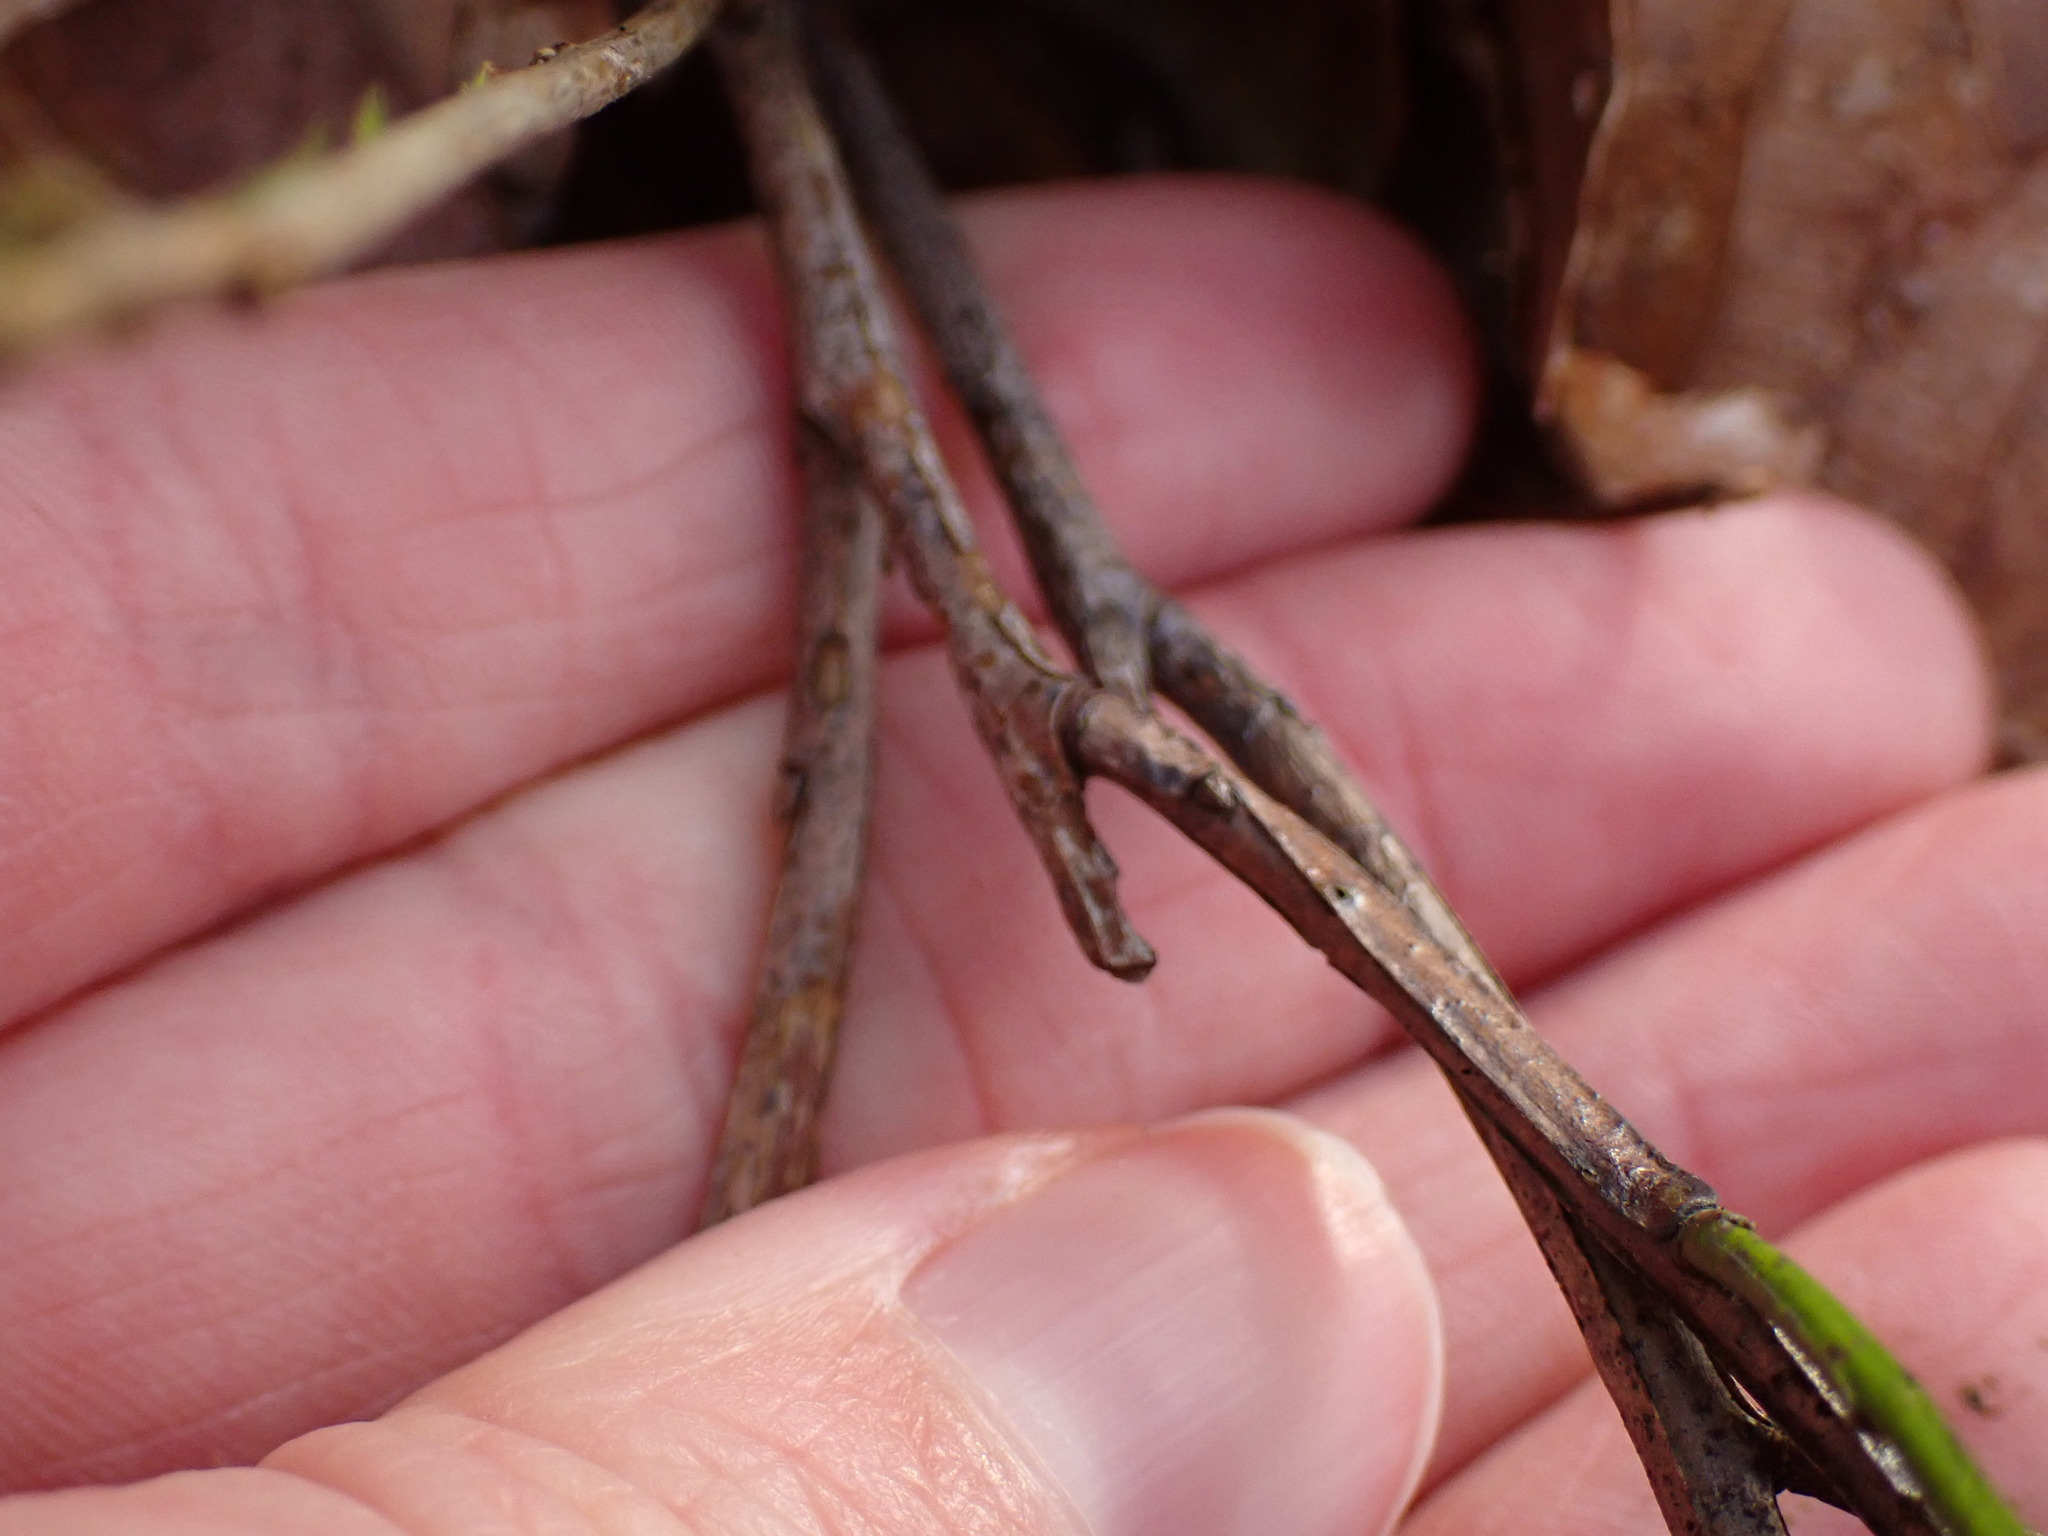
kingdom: Plantae
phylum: Tracheophyta
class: Magnoliopsida
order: Ericales
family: Ericaceae
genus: Vaccinium
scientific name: Vaccinium myrtillus
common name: Bilberry
